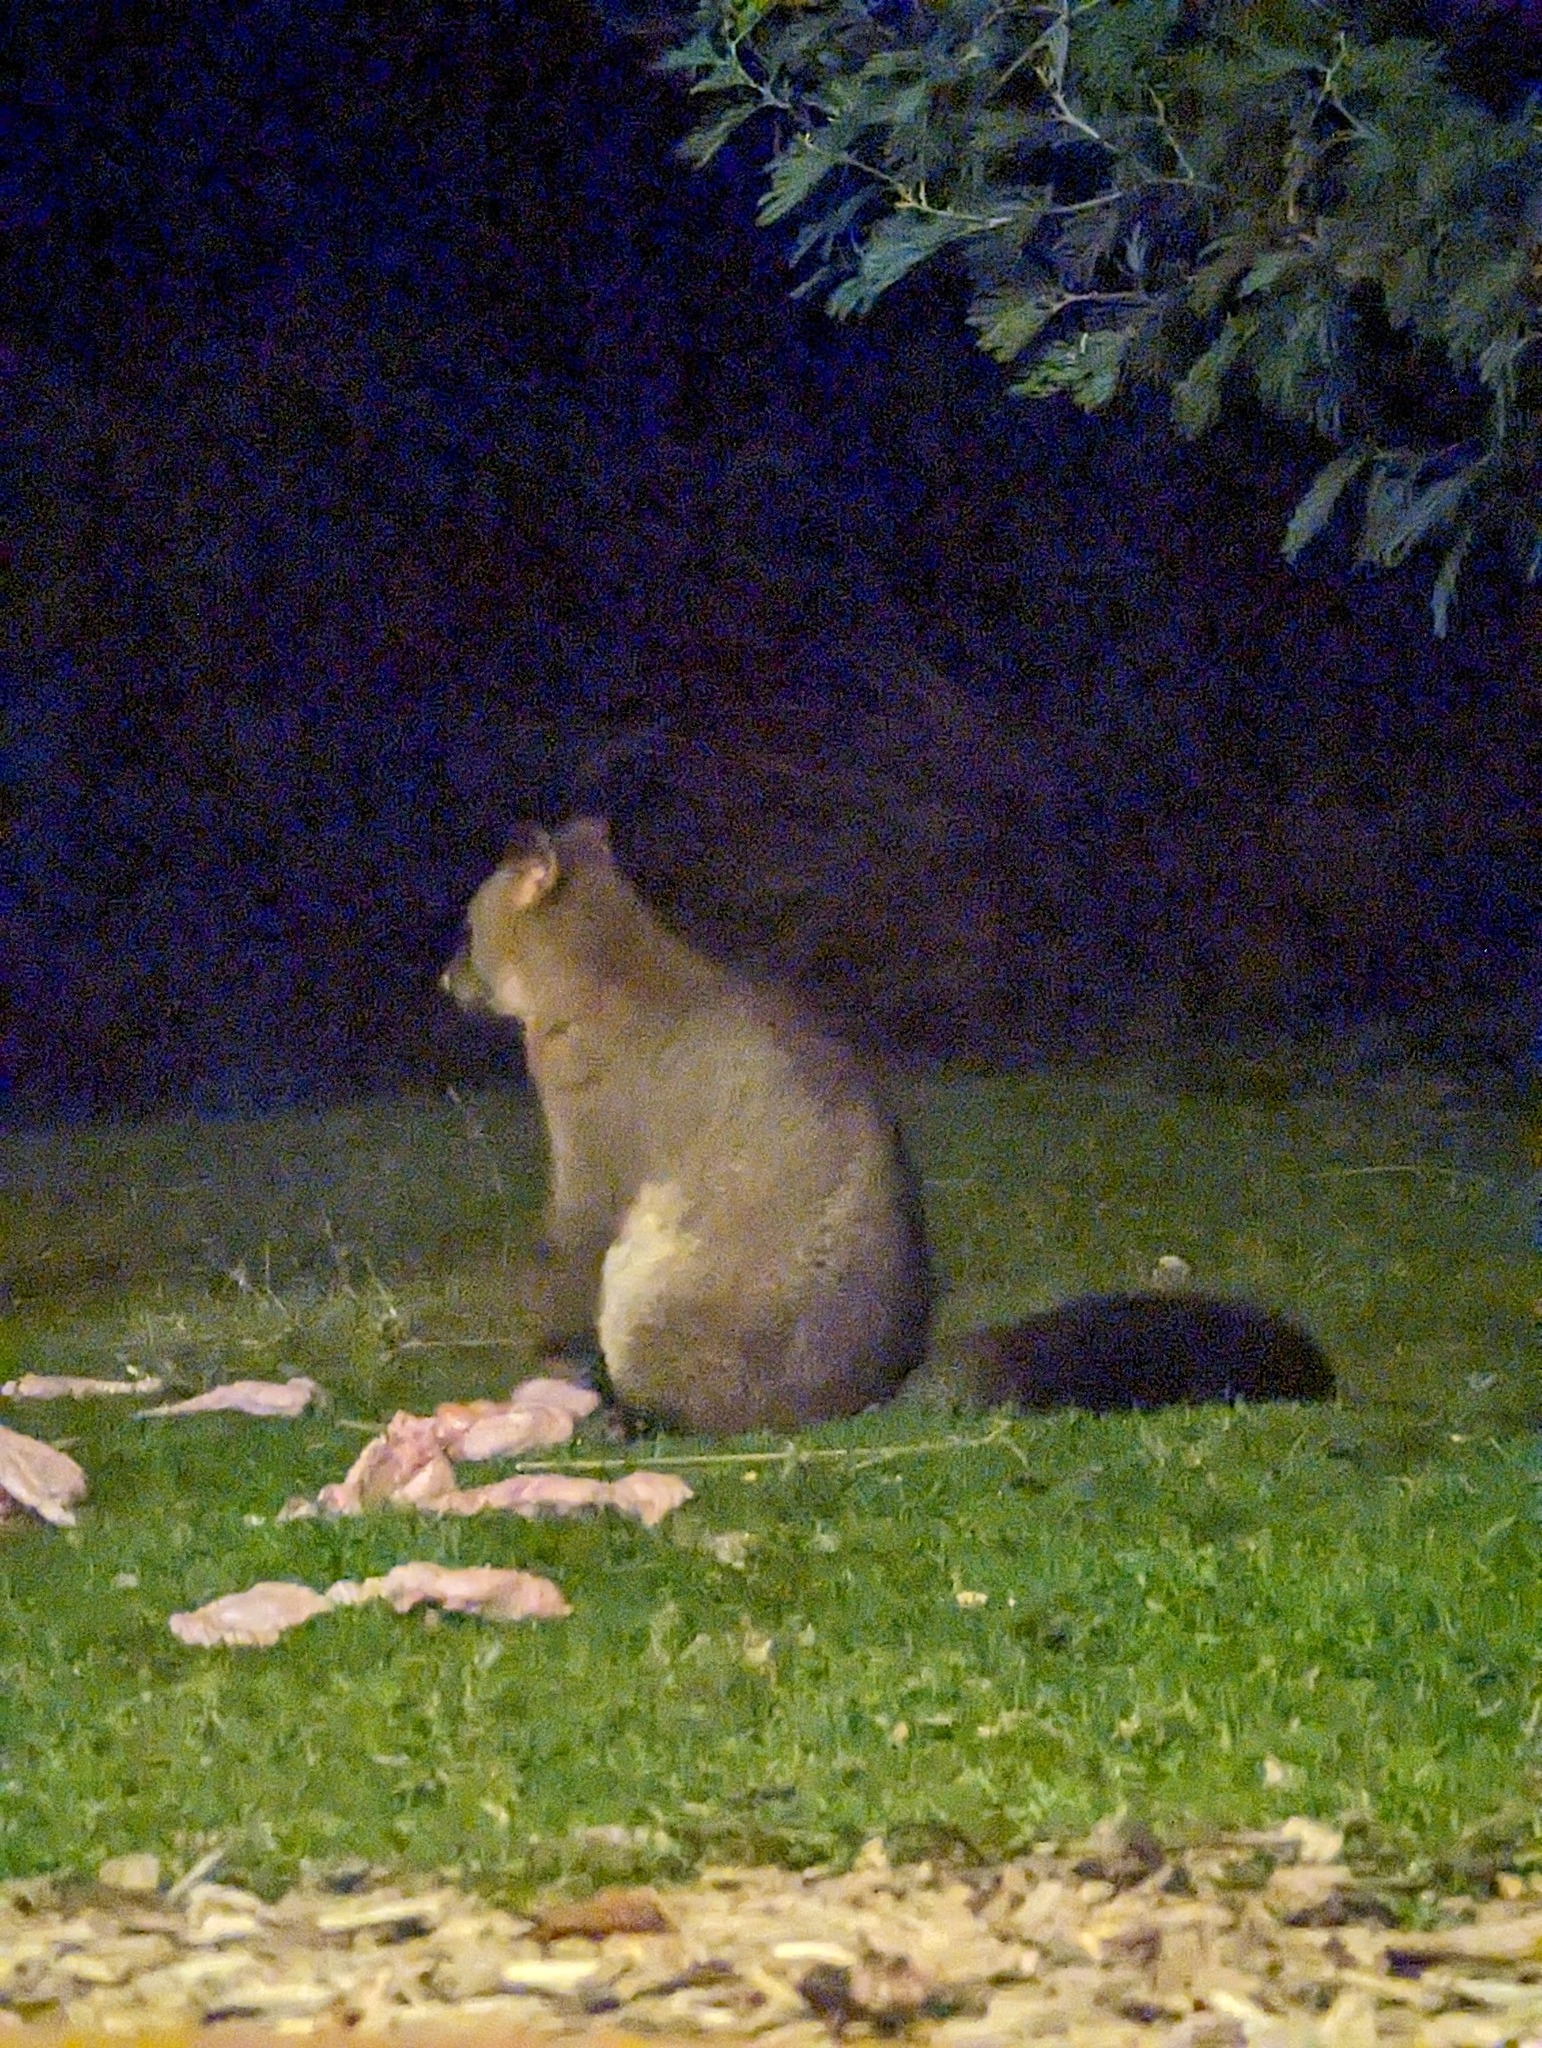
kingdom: Animalia
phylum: Chordata
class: Mammalia
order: Diprotodontia
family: Phalangeridae
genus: Trichosurus
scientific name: Trichosurus vulpecula
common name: Common brushtail
